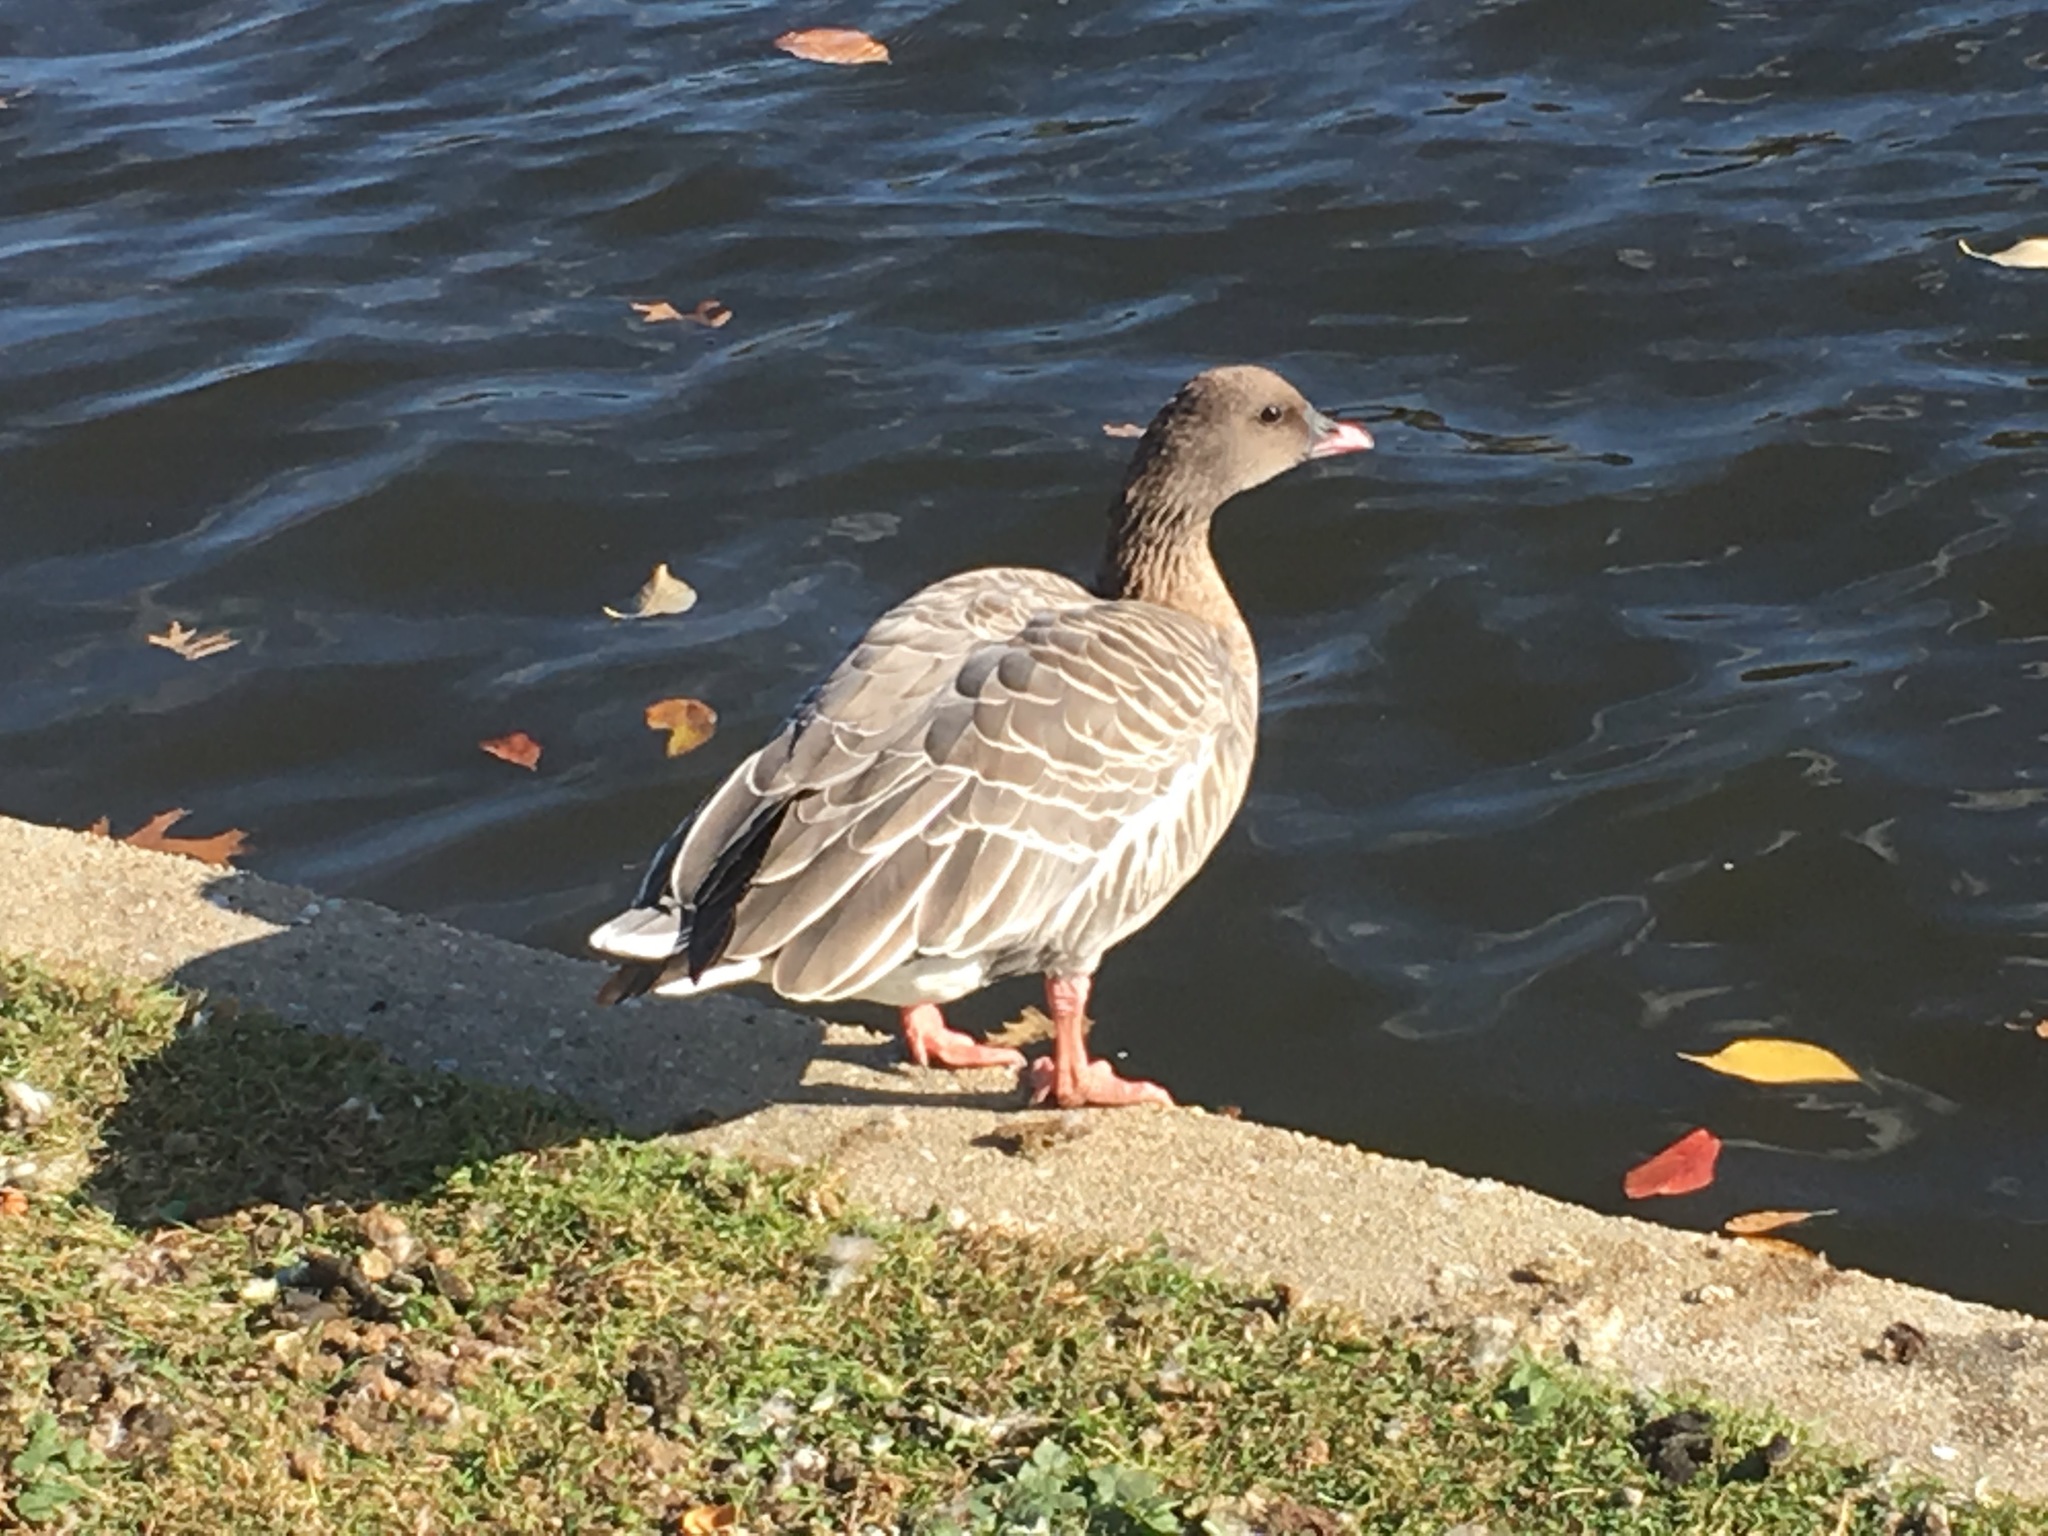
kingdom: Animalia
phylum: Chordata
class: Aves
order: Anseriformes
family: Anatidae
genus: Anser
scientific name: Anser brachyrhynchus
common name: Pink-footed goose
